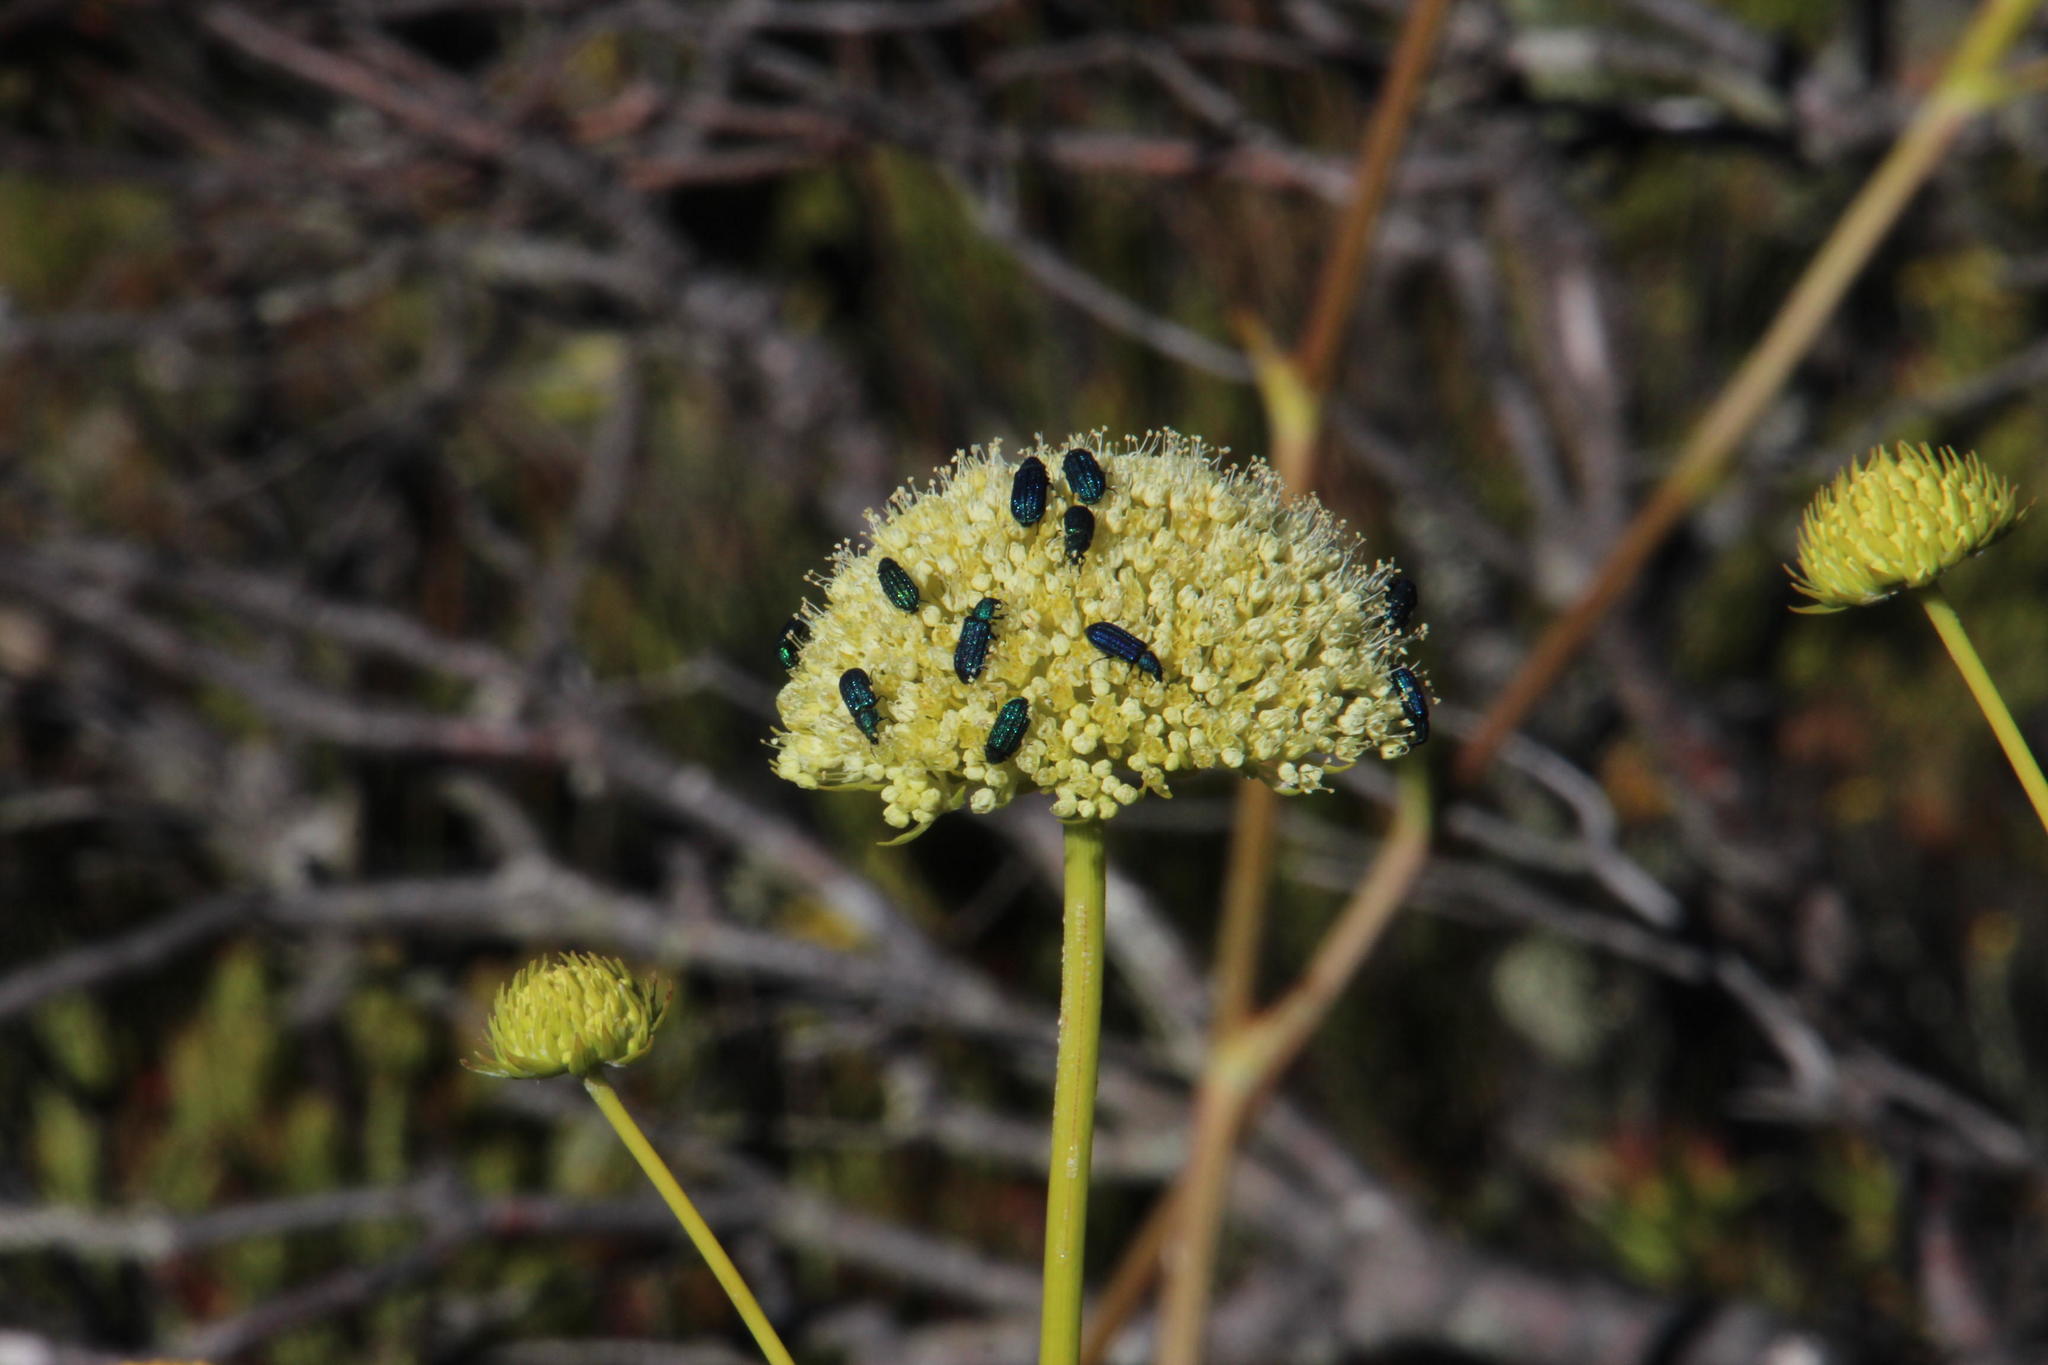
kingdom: Plantae
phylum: Tracheophyta
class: Magnoliopsida
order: Apiales
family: Apiaceae
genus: Hermas
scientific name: Hermas villosa
